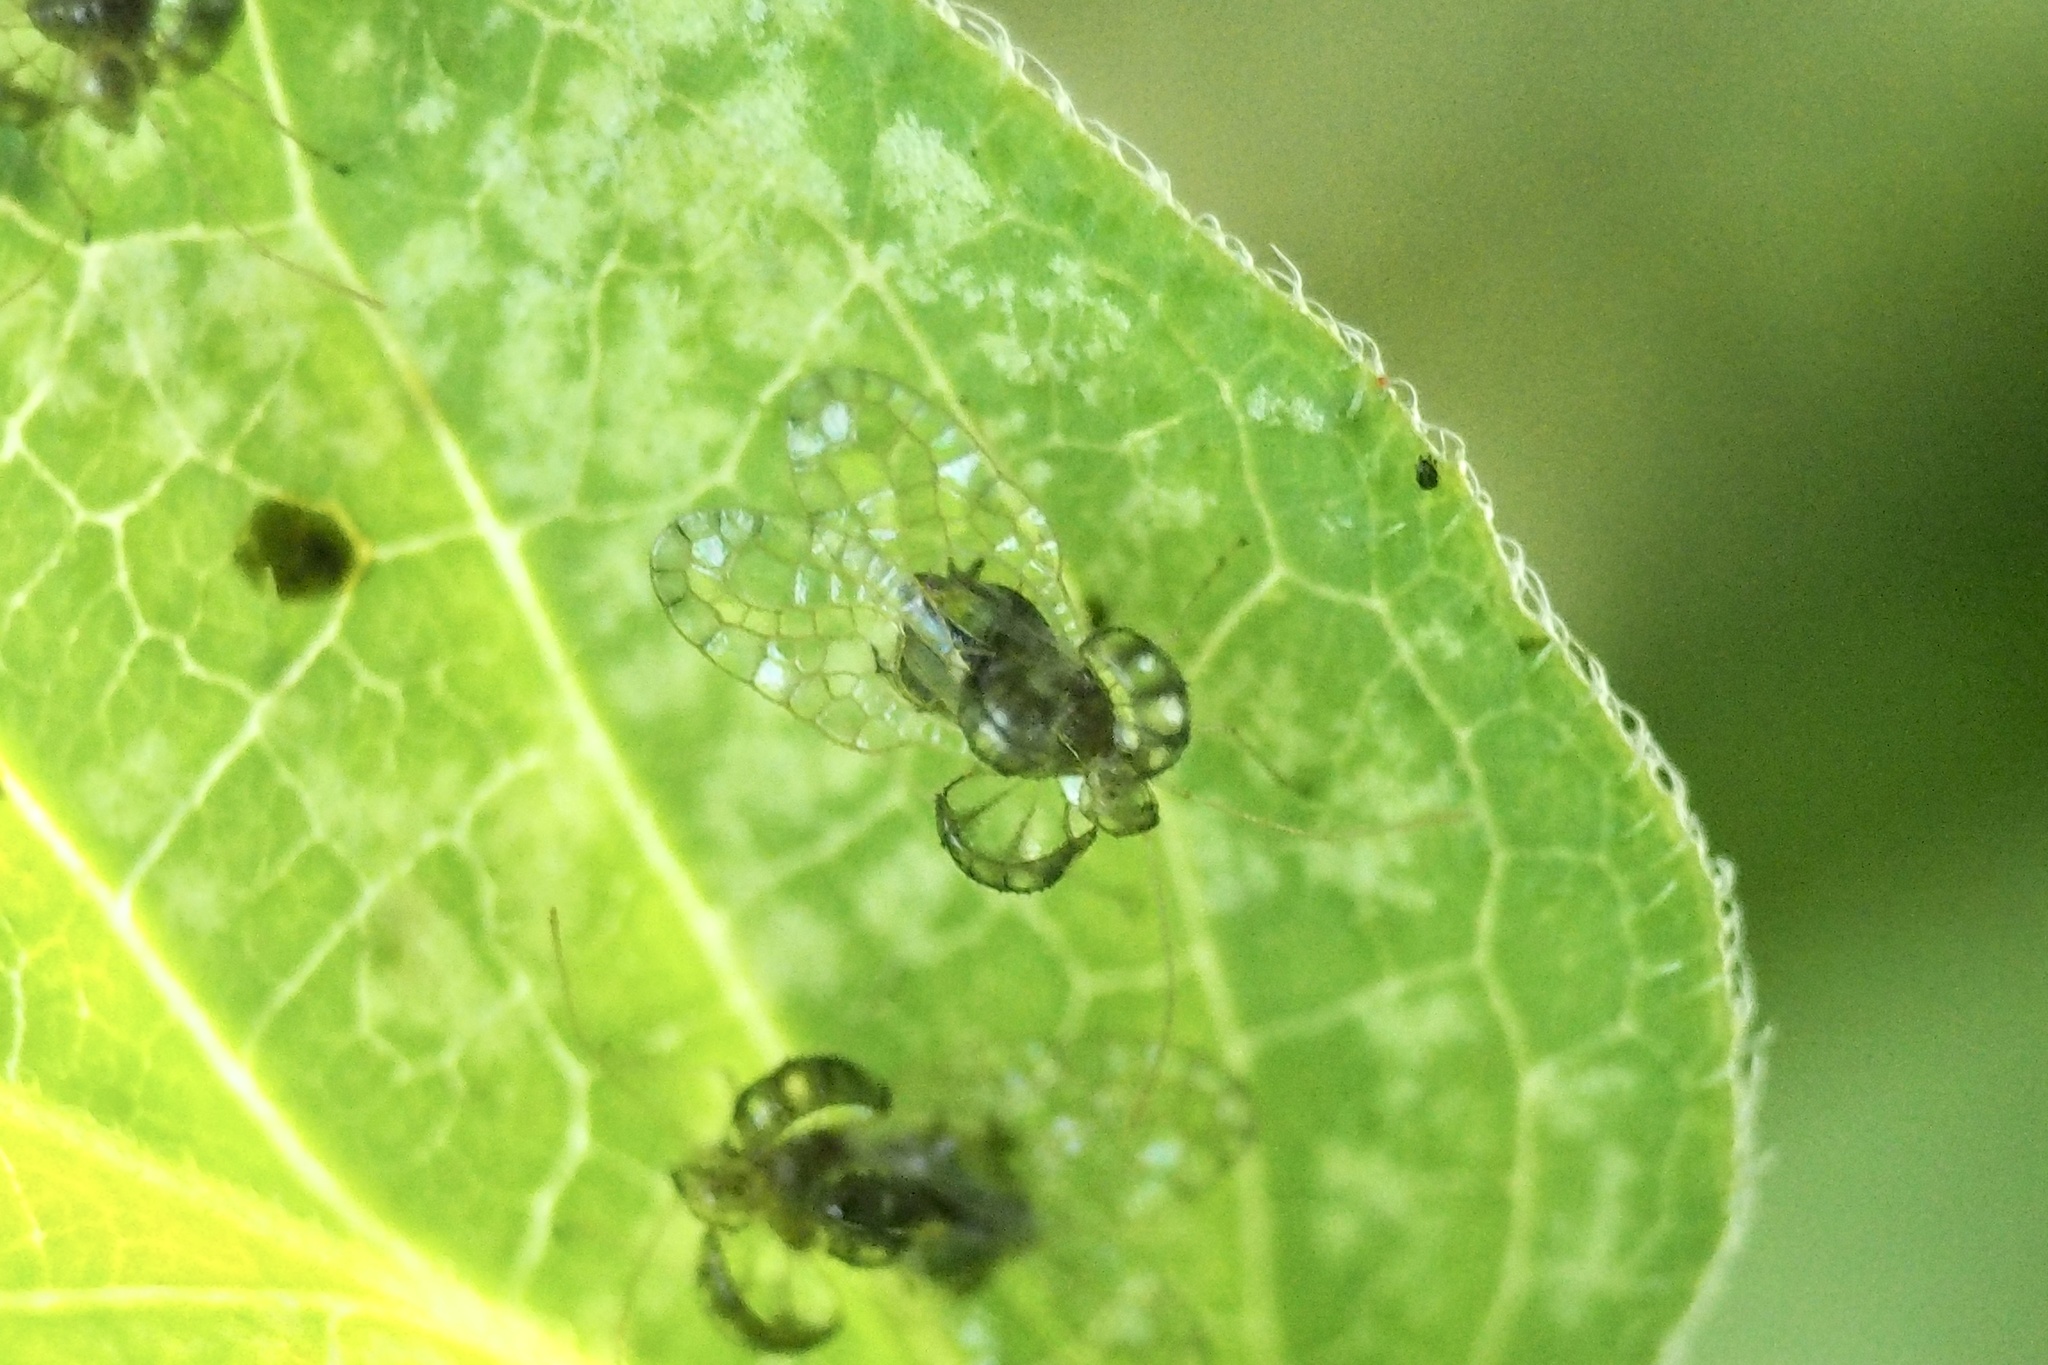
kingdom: Animalia
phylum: Arthropoda
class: Insecta
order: Hemiptera
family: Tingidae
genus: Dulinius
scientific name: Dulinius conchatus
